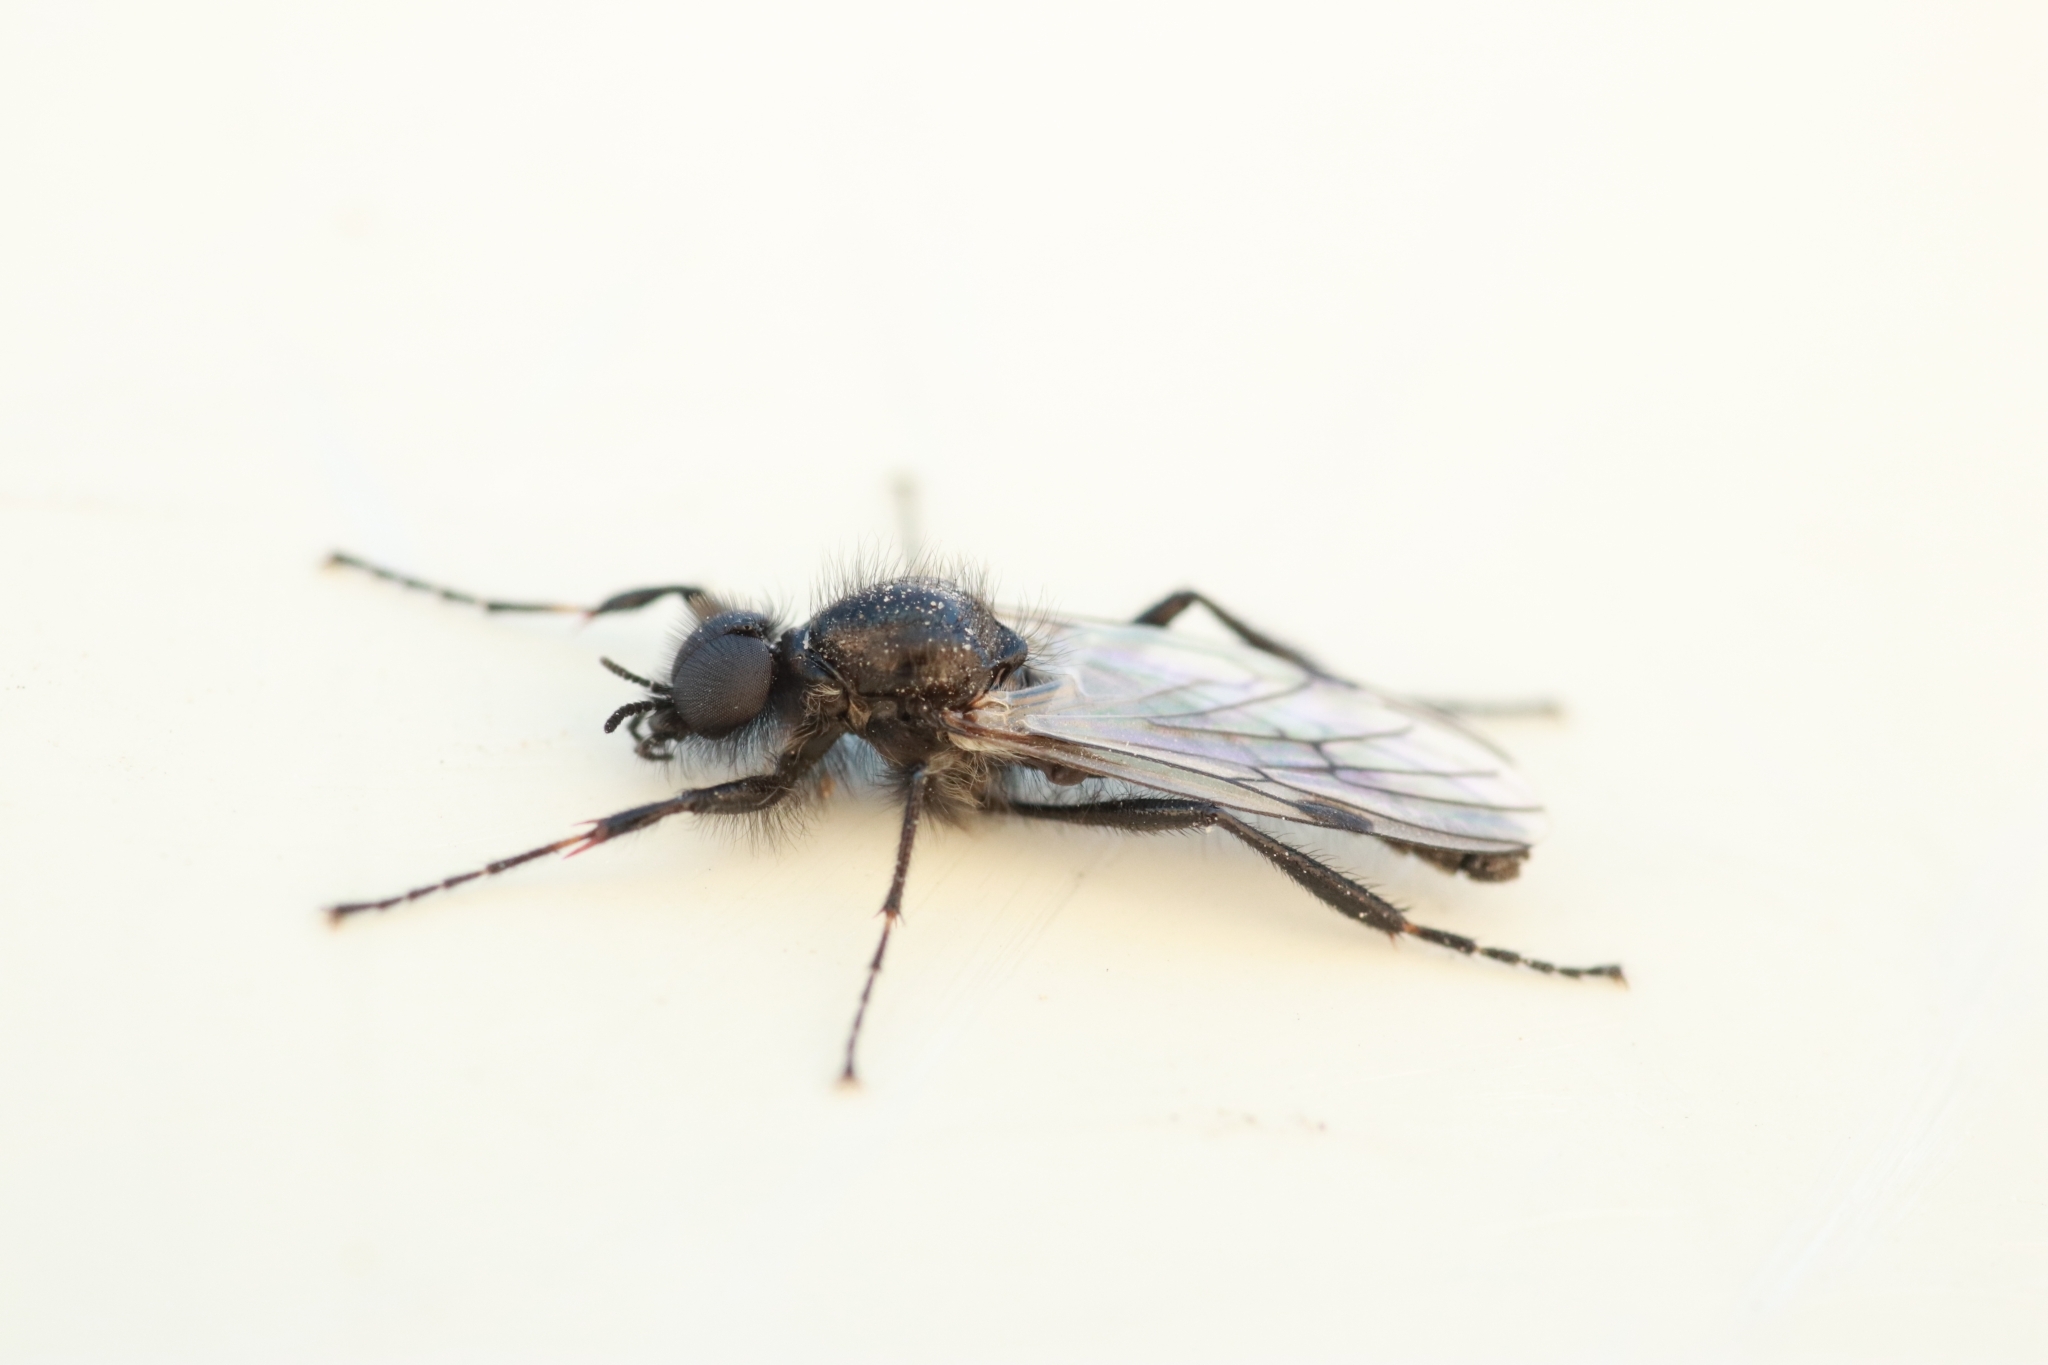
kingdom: Animalia
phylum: Arthropoda
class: Insecta
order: Diptera
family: Bibionidae
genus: Bibio
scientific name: Bibio albipennis
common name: White-winged march fly
